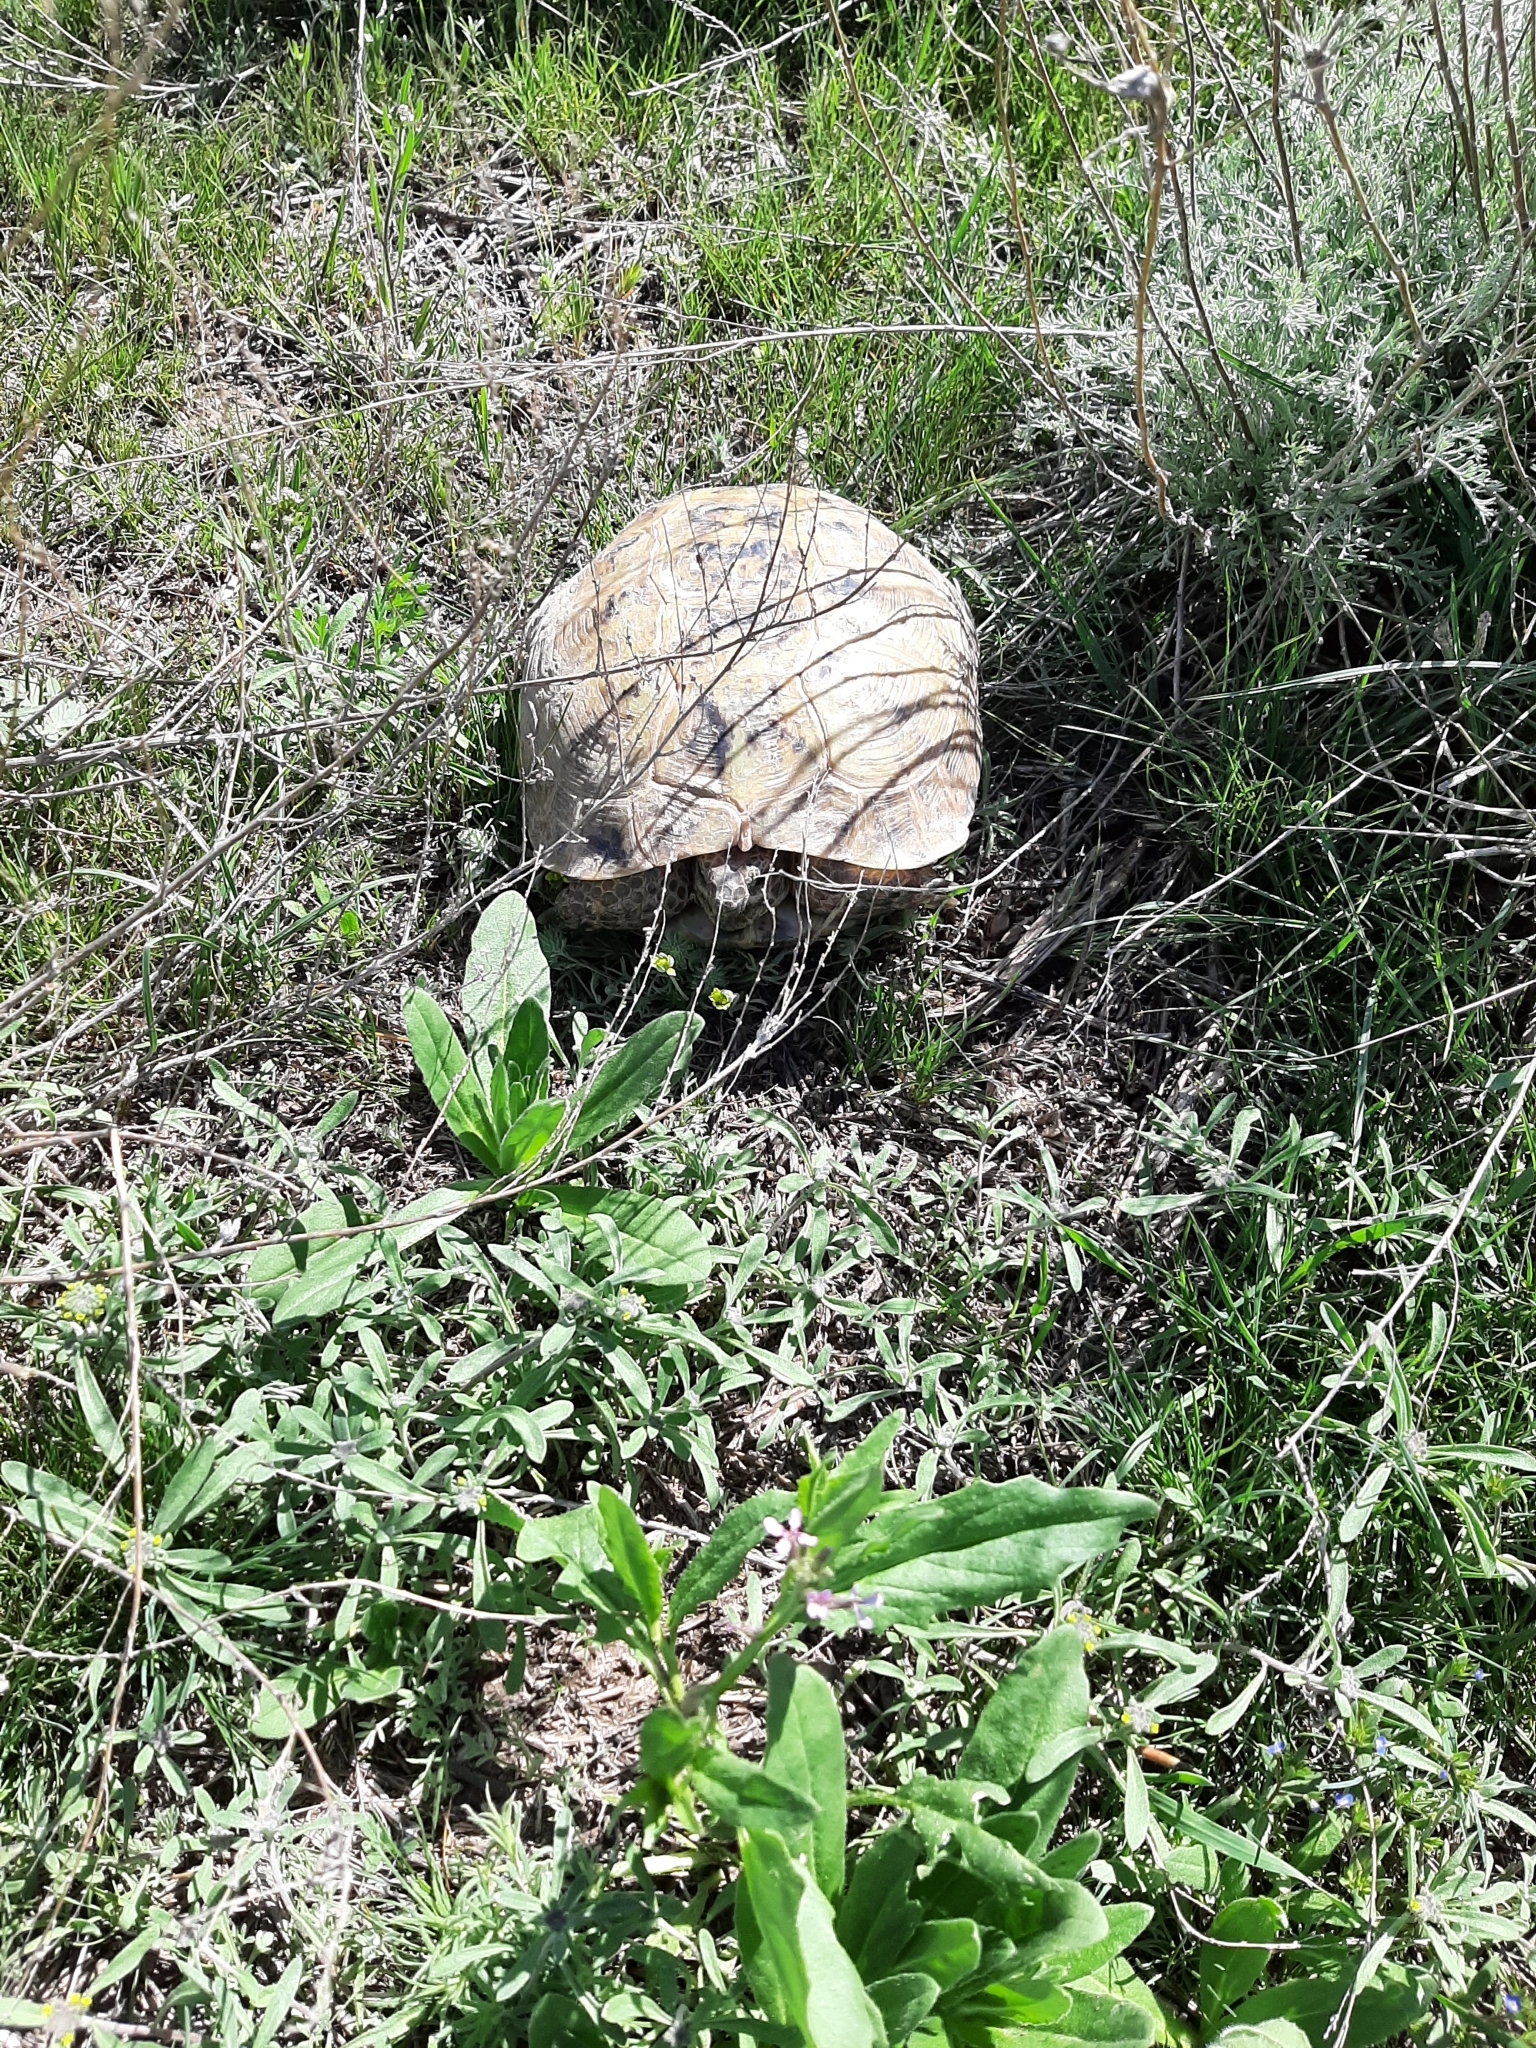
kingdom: Animalia
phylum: Chordata
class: Testudines
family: Testudinidae
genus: Testudo
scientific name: Testudo horsfieldii
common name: Central asia tortoise
